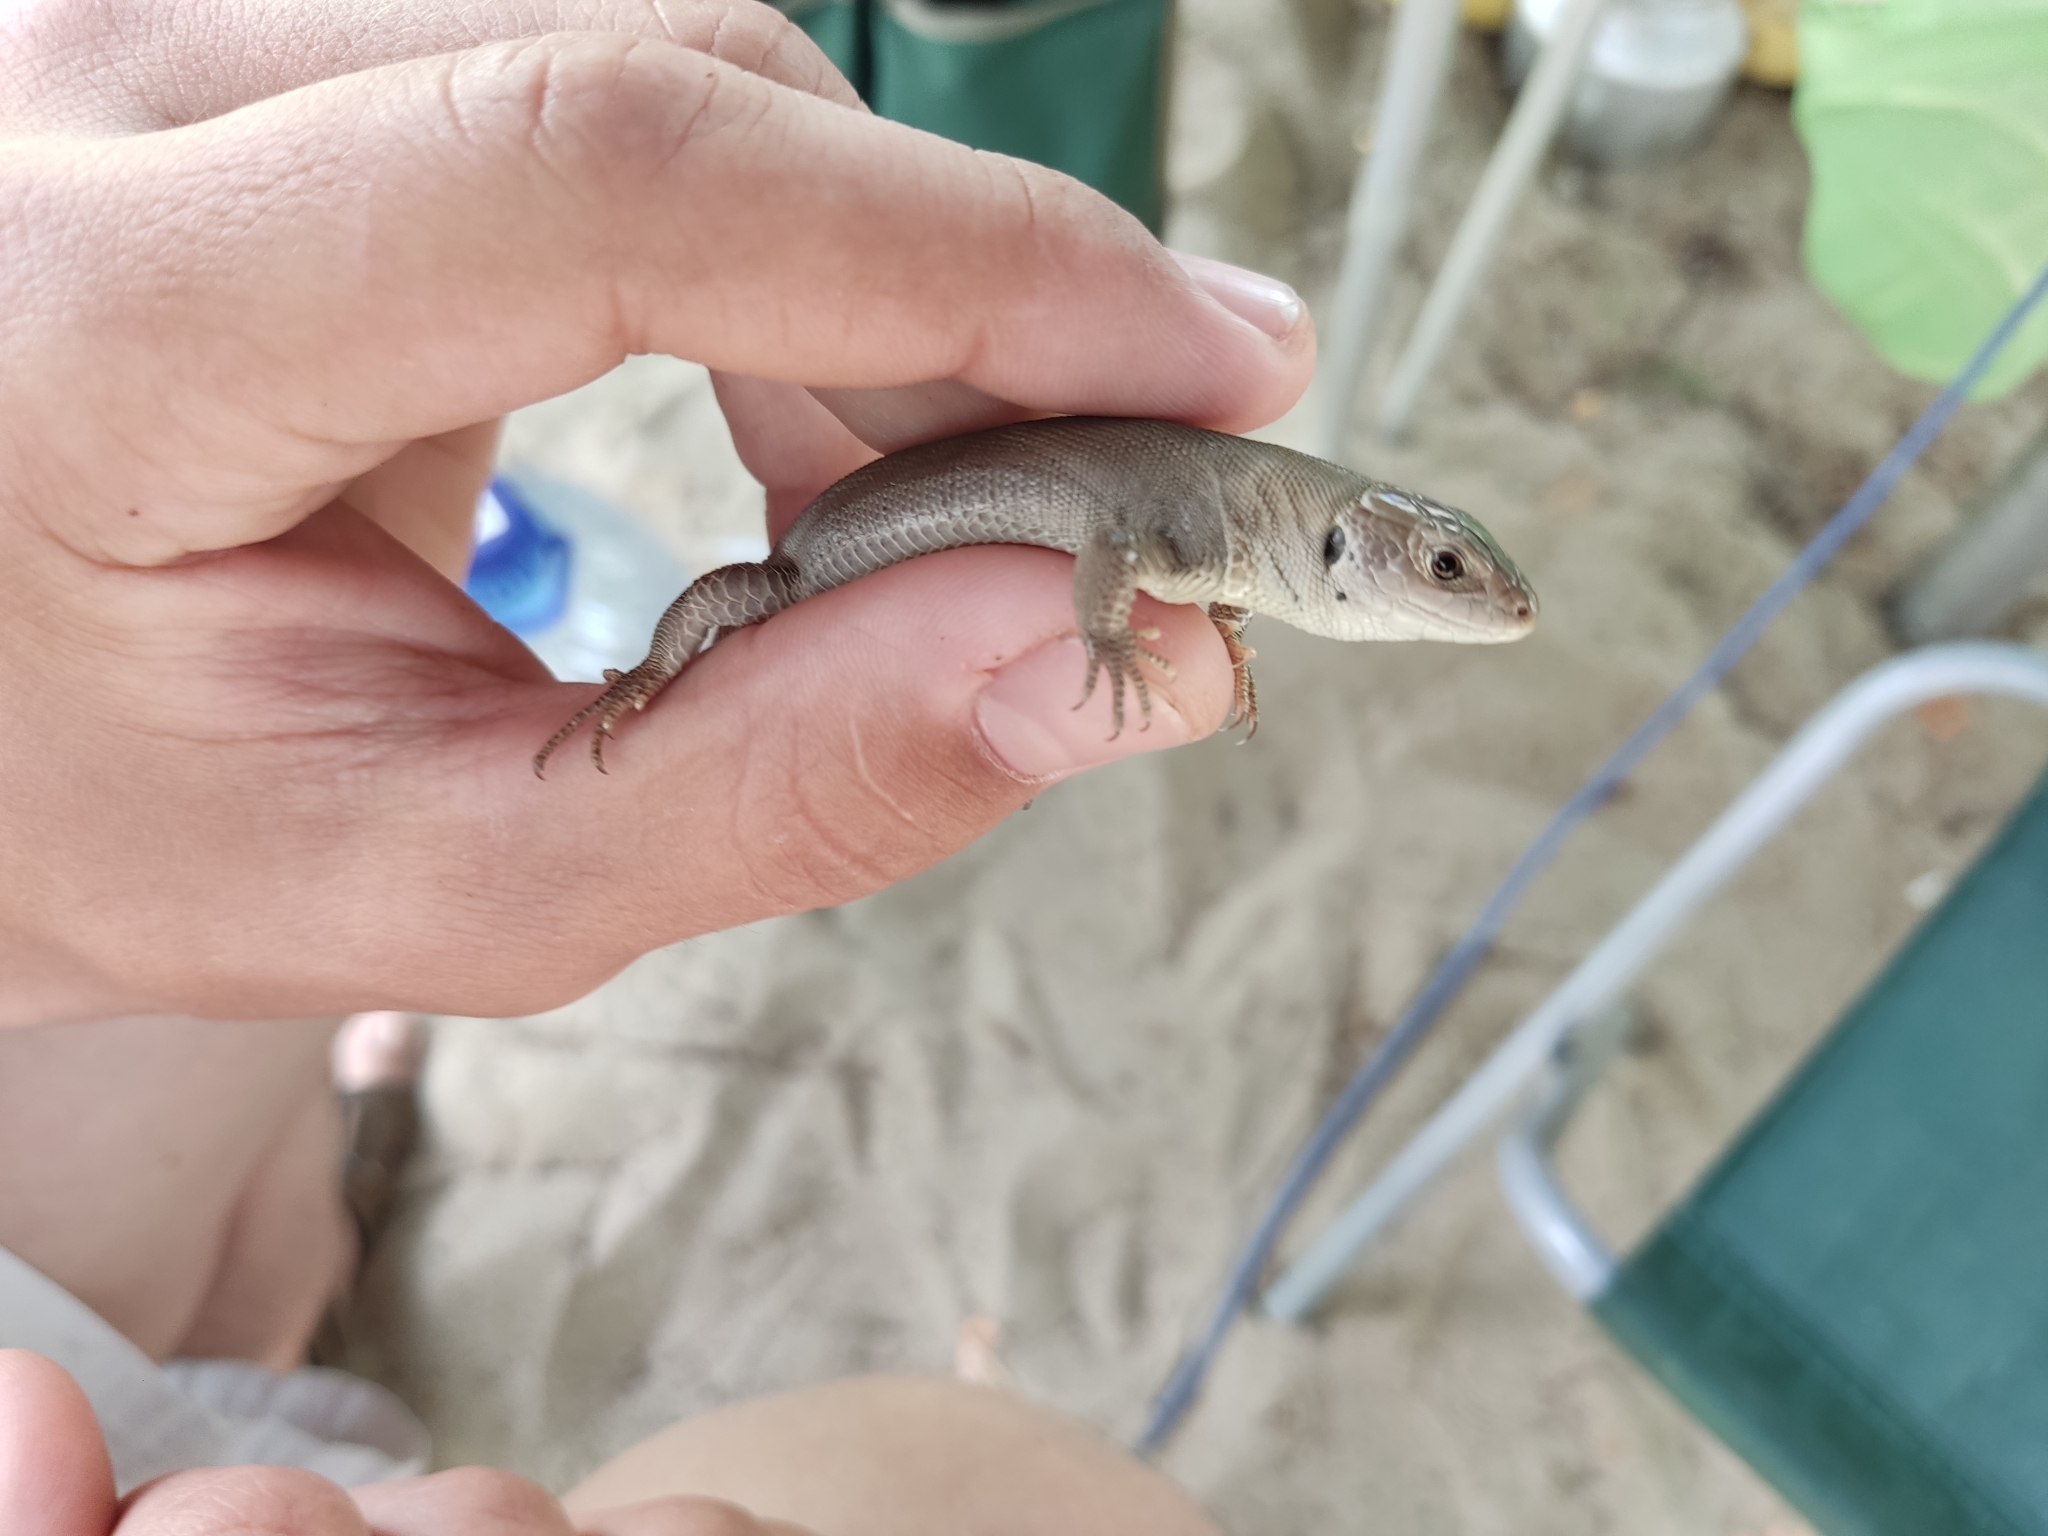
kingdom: Animalia
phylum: Chordata
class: Squamata
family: Lacertidae
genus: Lacerta
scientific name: Lacerta agilis
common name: Sand lizard
